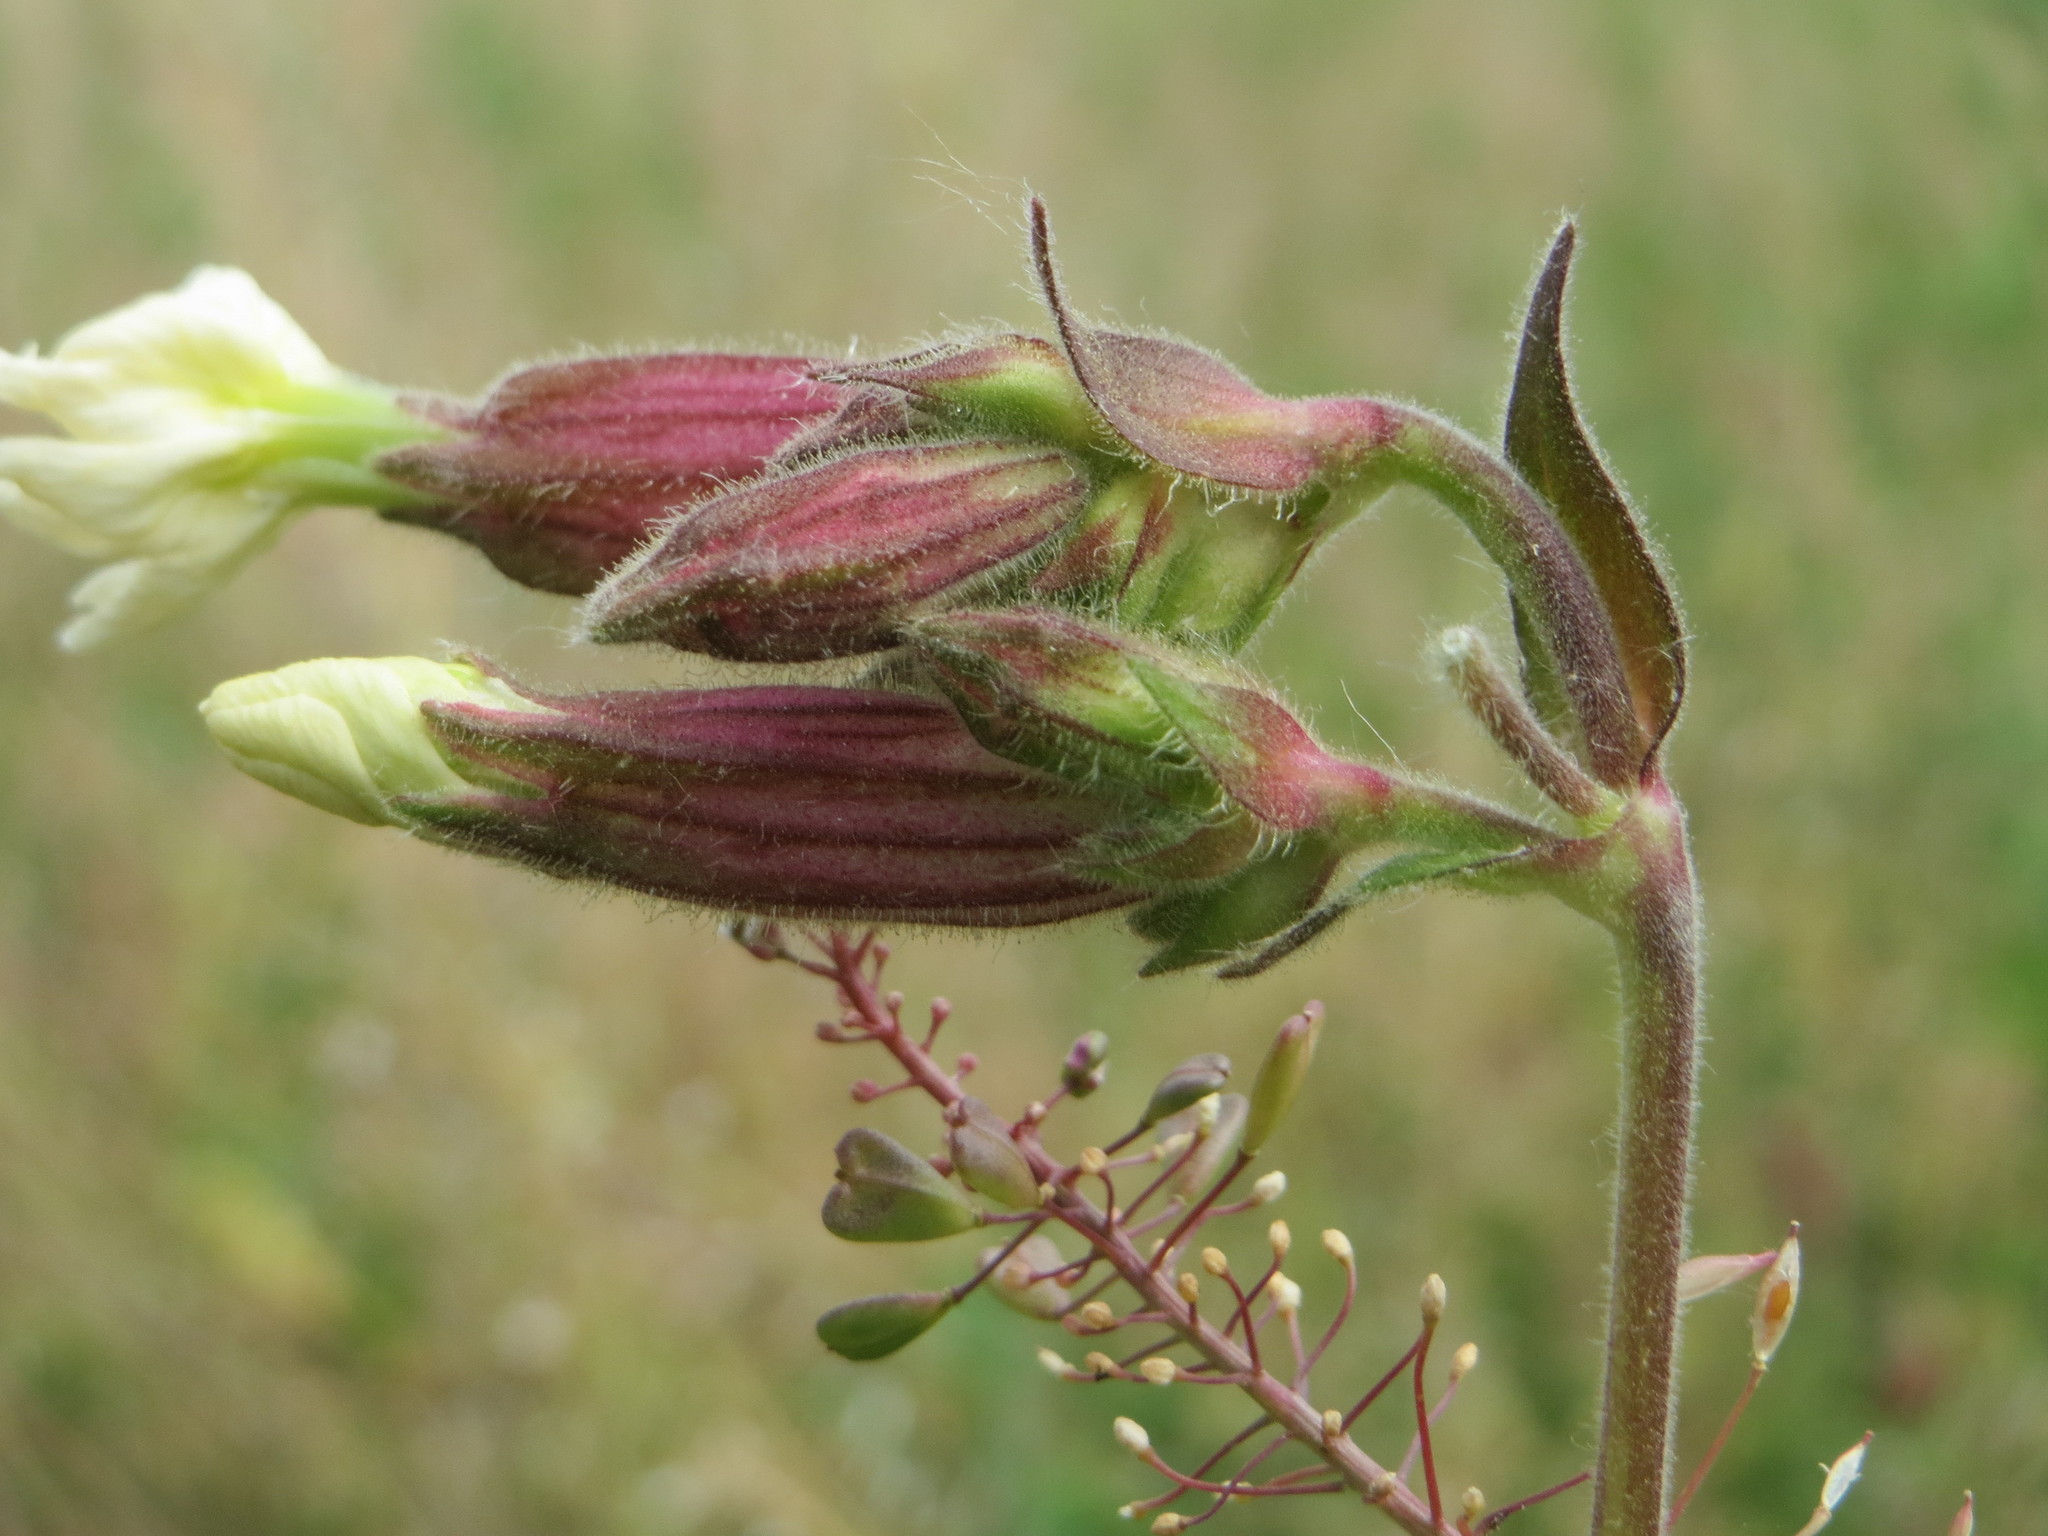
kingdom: Plantae
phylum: Tracheophyta
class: Magnoliopsida
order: Caryophyllales
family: Caryophyllaceae
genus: Silene
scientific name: Silene latifolia
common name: White campion
